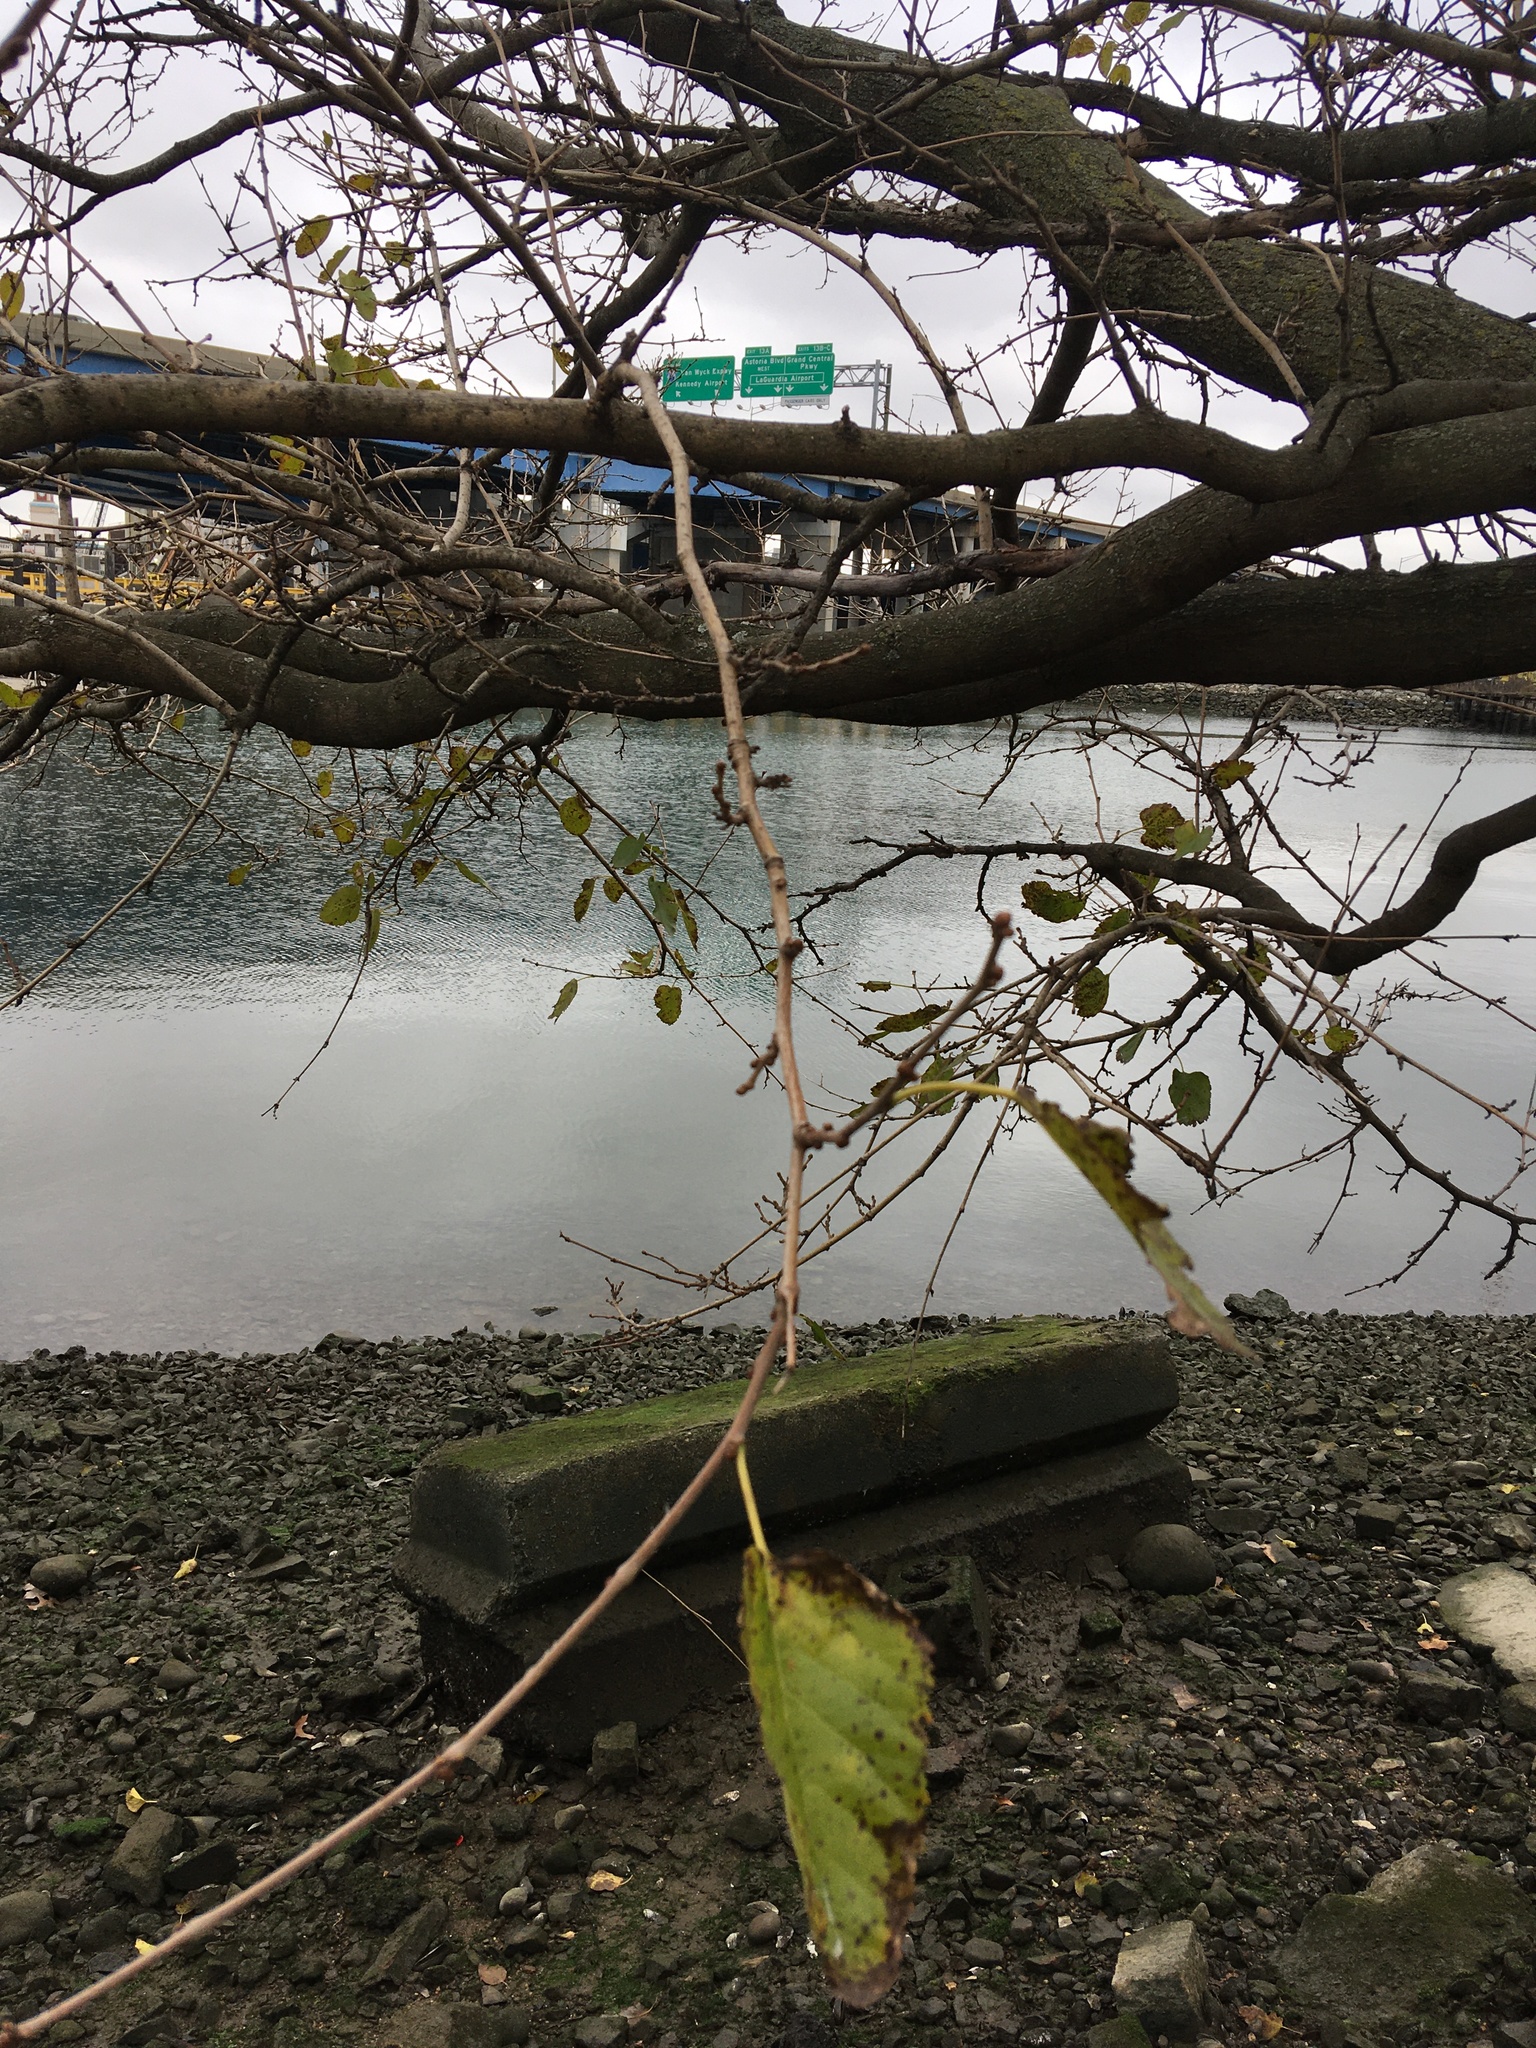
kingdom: Plantae
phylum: Tracheophyta
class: Magnoliopsida
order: Rosales
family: Moraceae
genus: Morus
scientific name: Morus alba
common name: White mulberry
